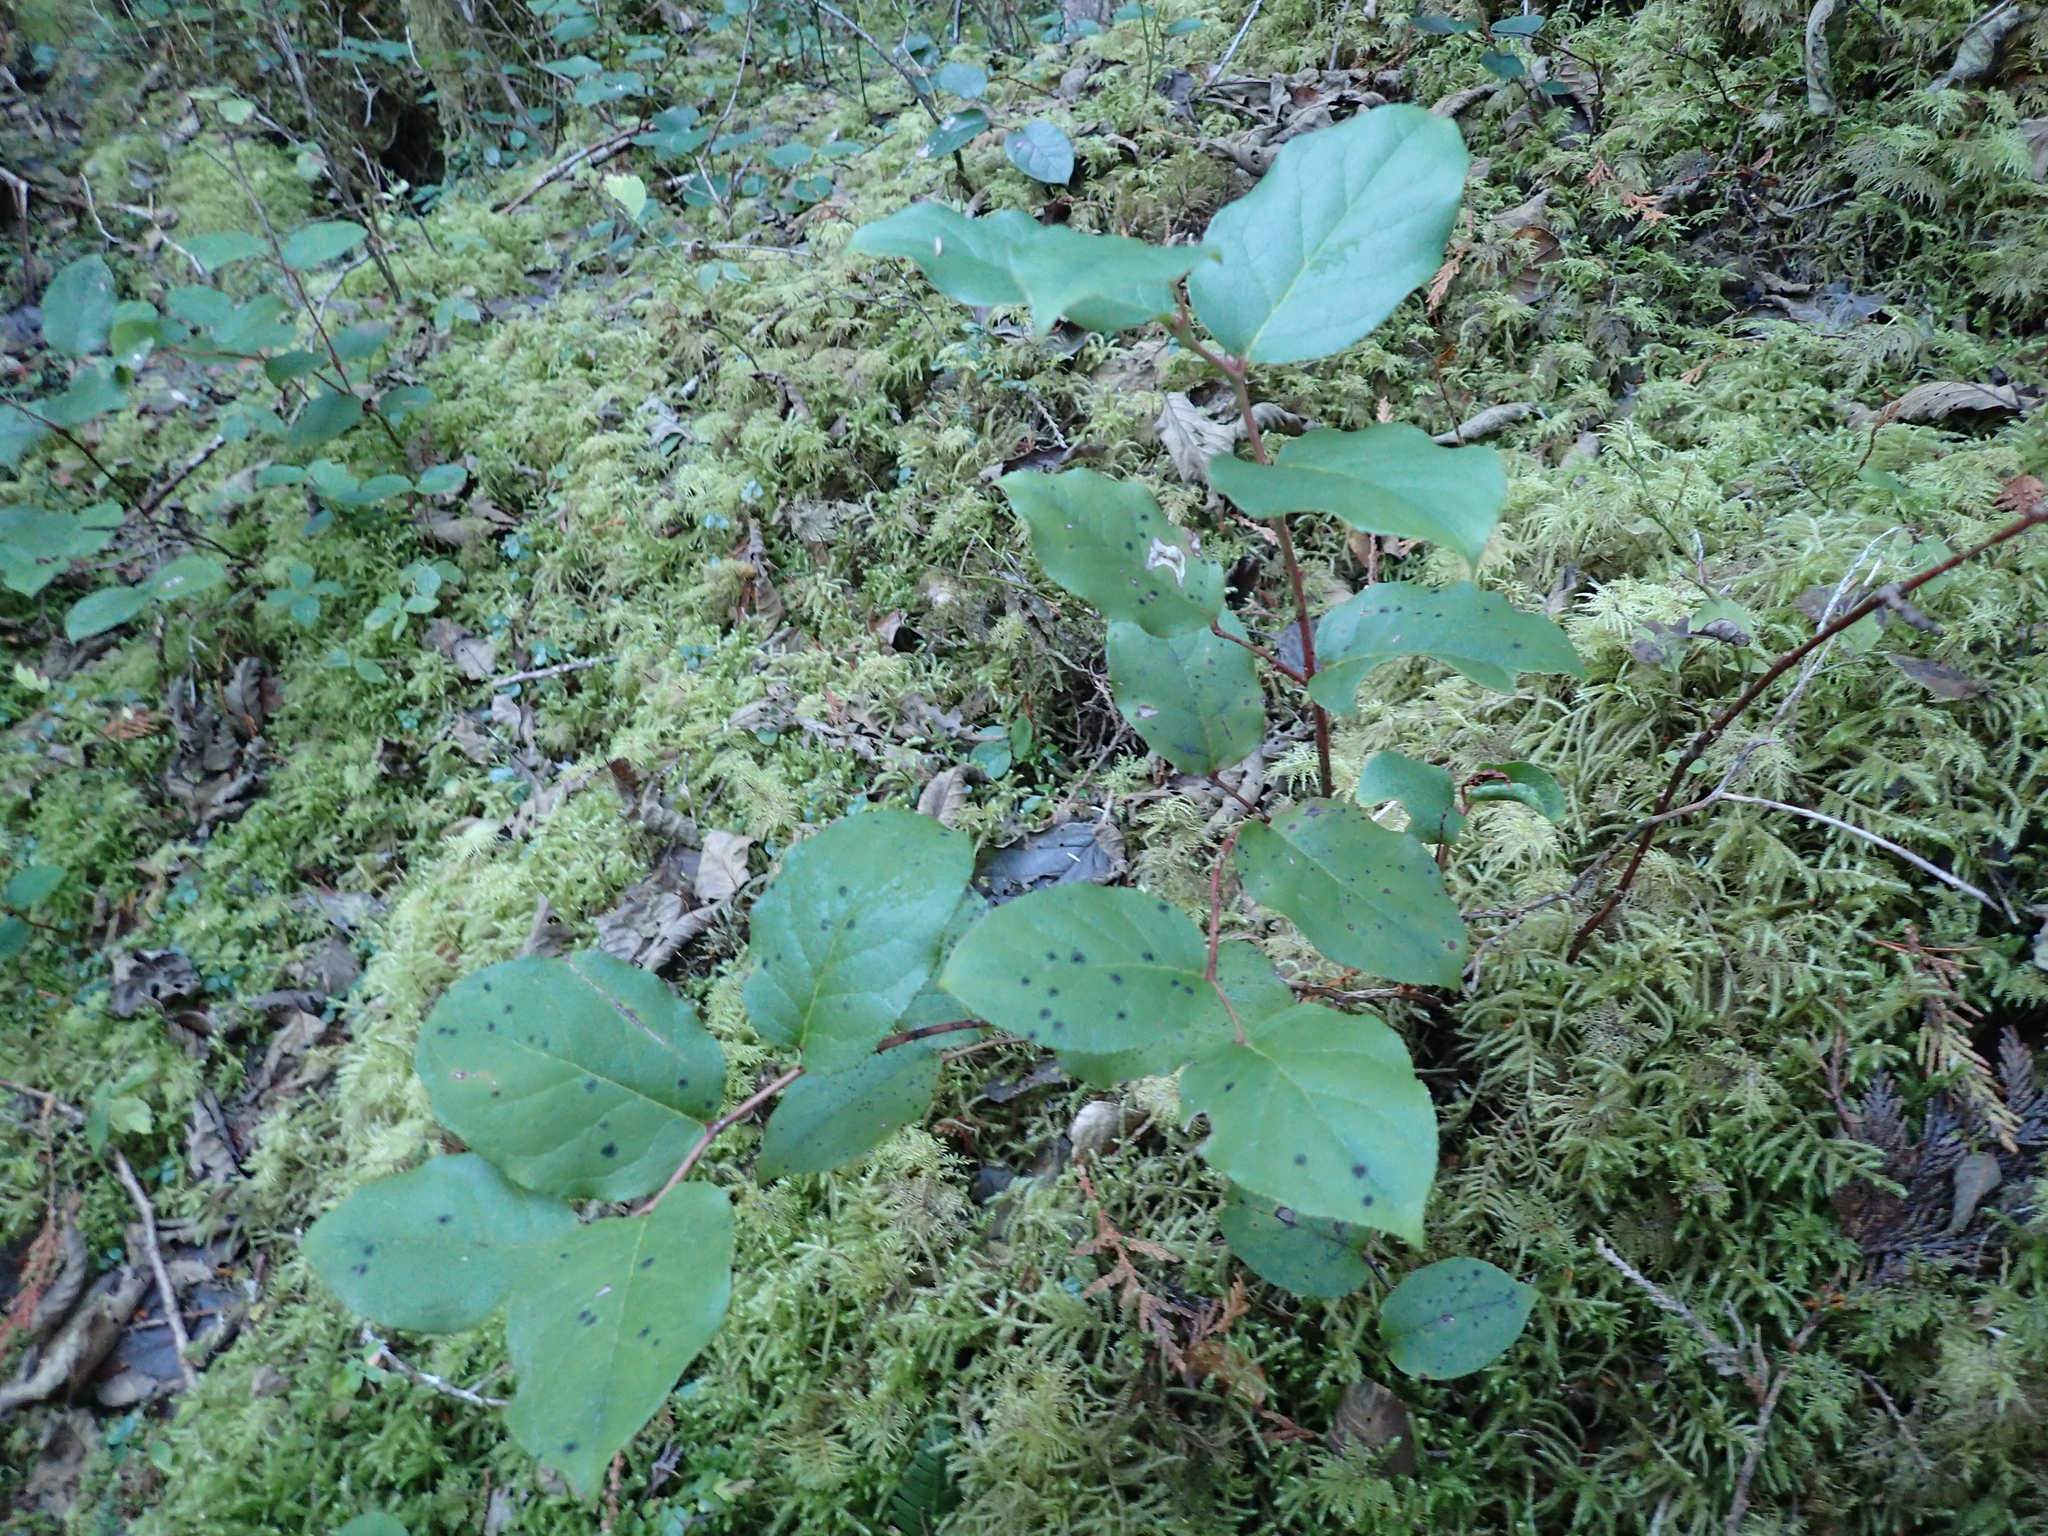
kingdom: Plantae
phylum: Tracheophyta
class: Magnoliopsida
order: Ericales
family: Ericaceae
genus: Gaultheria
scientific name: Gaultheria shallon
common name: Shallon
